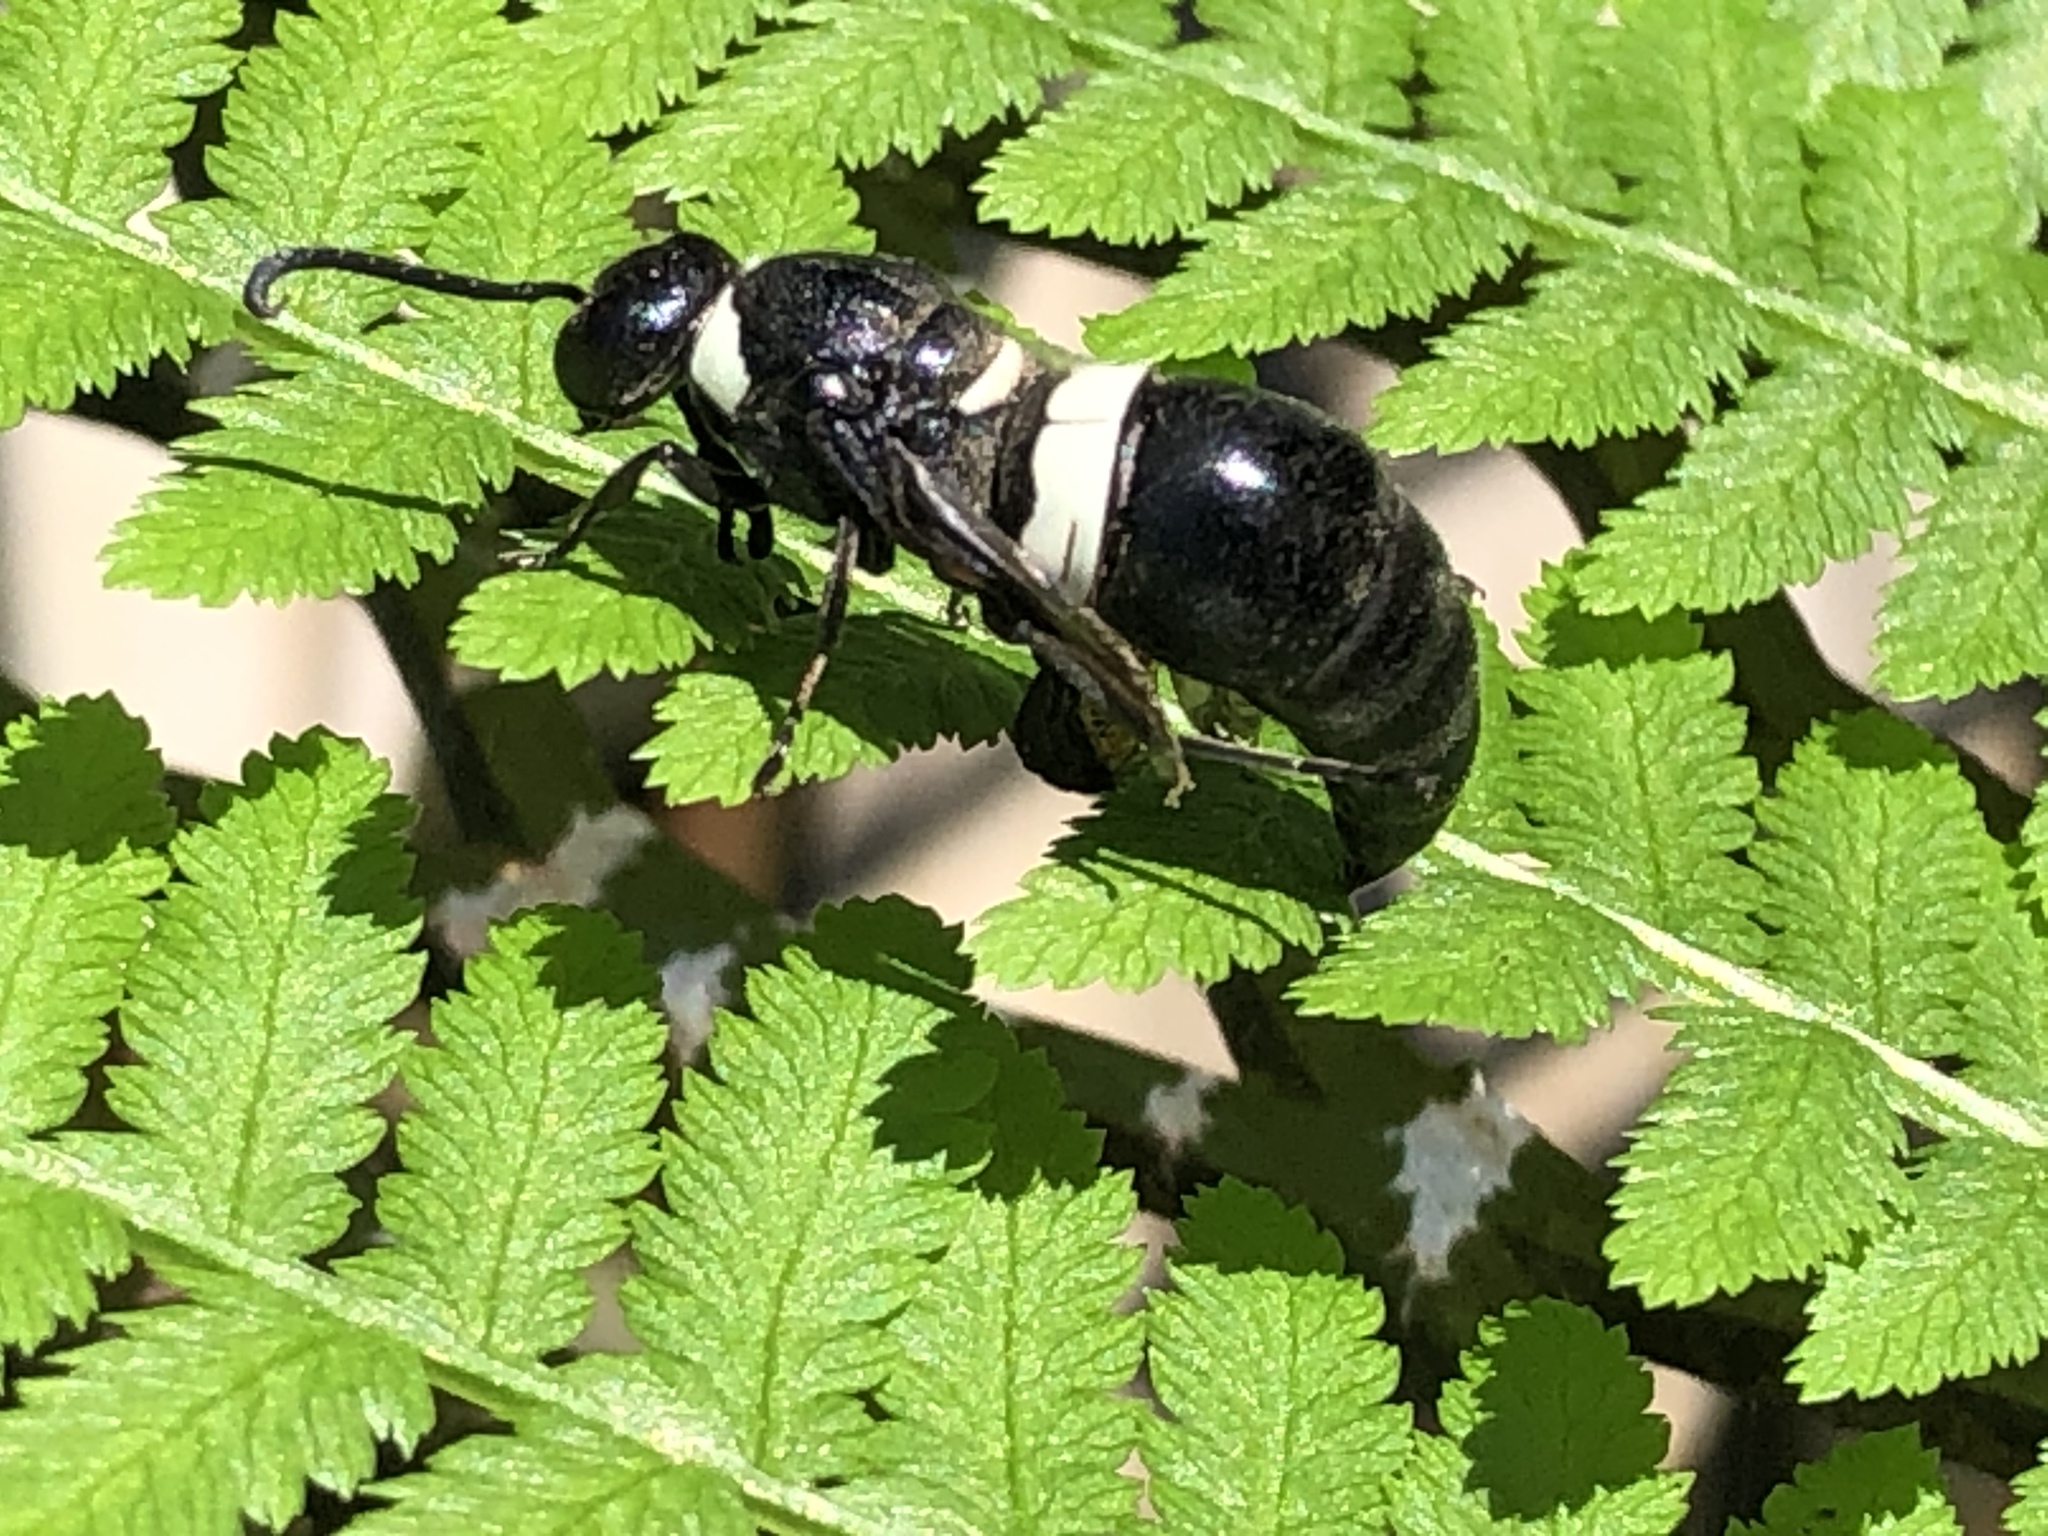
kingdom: Animalia
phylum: Arthropoda
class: Insecta
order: Hymenoptera
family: Eumenidae
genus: Monobia
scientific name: Monobia quadridens
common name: Four-toothed mason wasp
